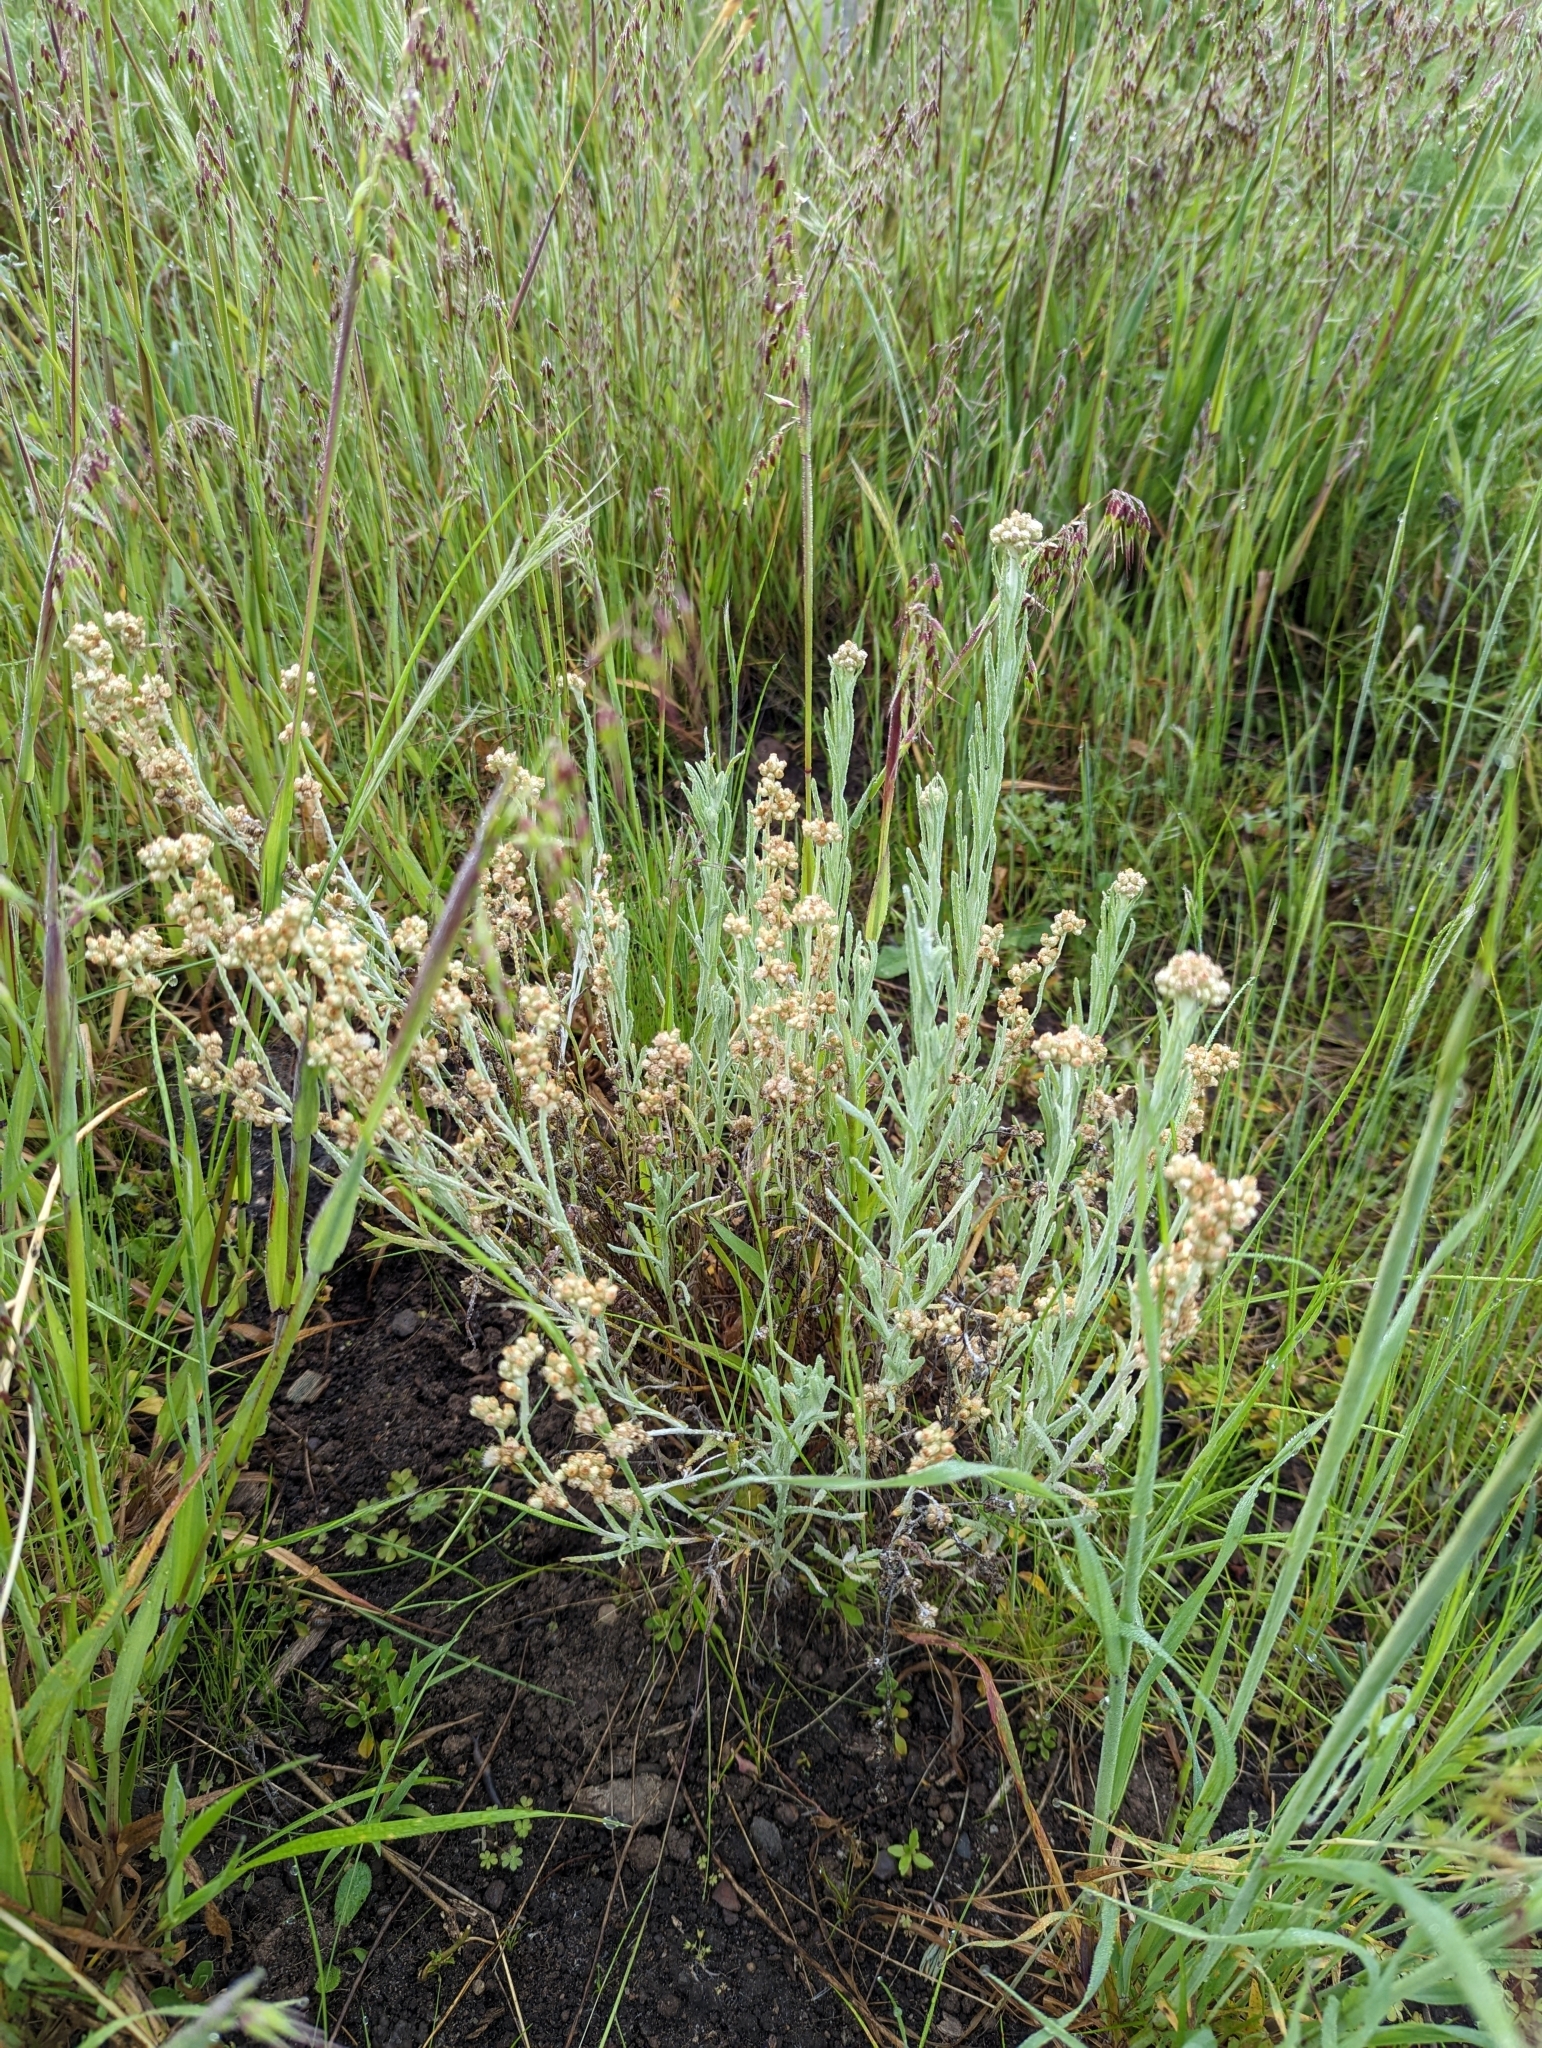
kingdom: Plantae
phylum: Tracheophyta
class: Magnoliopsida
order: Asterales
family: Asteraceae
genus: Helichrysum
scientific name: Helichrysum luteoalbum
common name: Daisy
